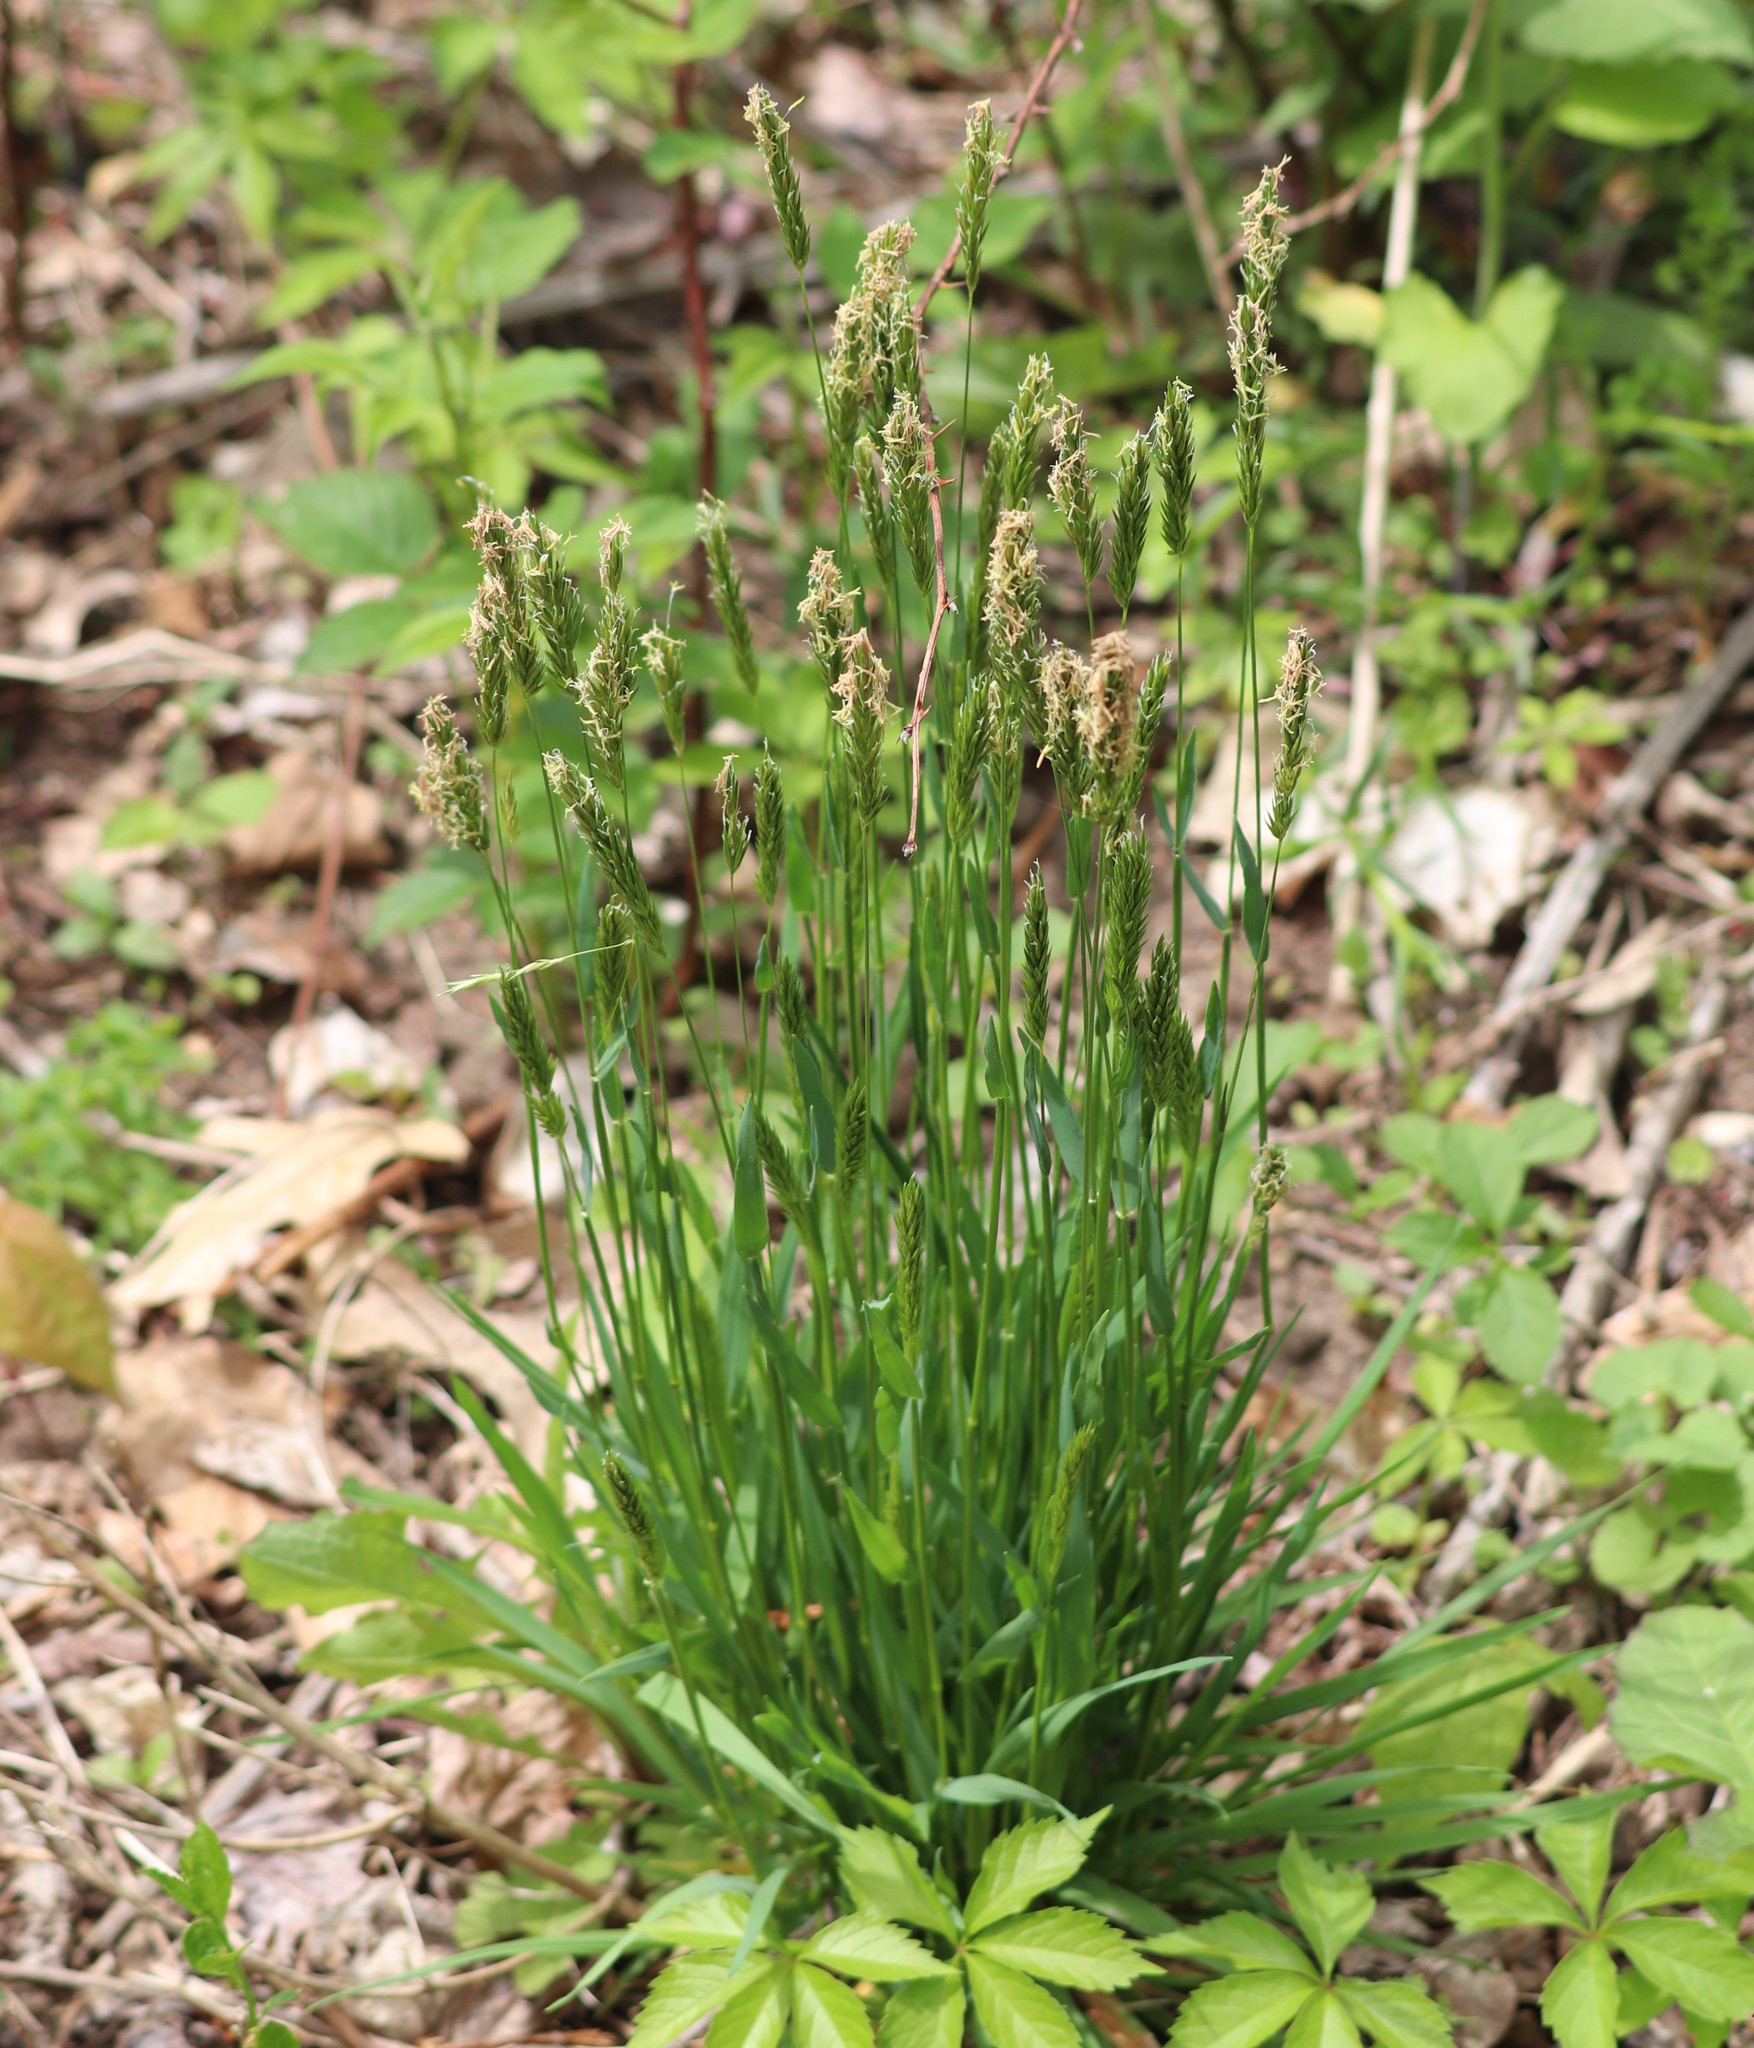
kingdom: Plantae
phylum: Tracheophyta
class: Liliopsida
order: Poales
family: Poaceae
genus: Anthoxanthum
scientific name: Anthoxanthum odoratum
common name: Sweet vernalgrass
